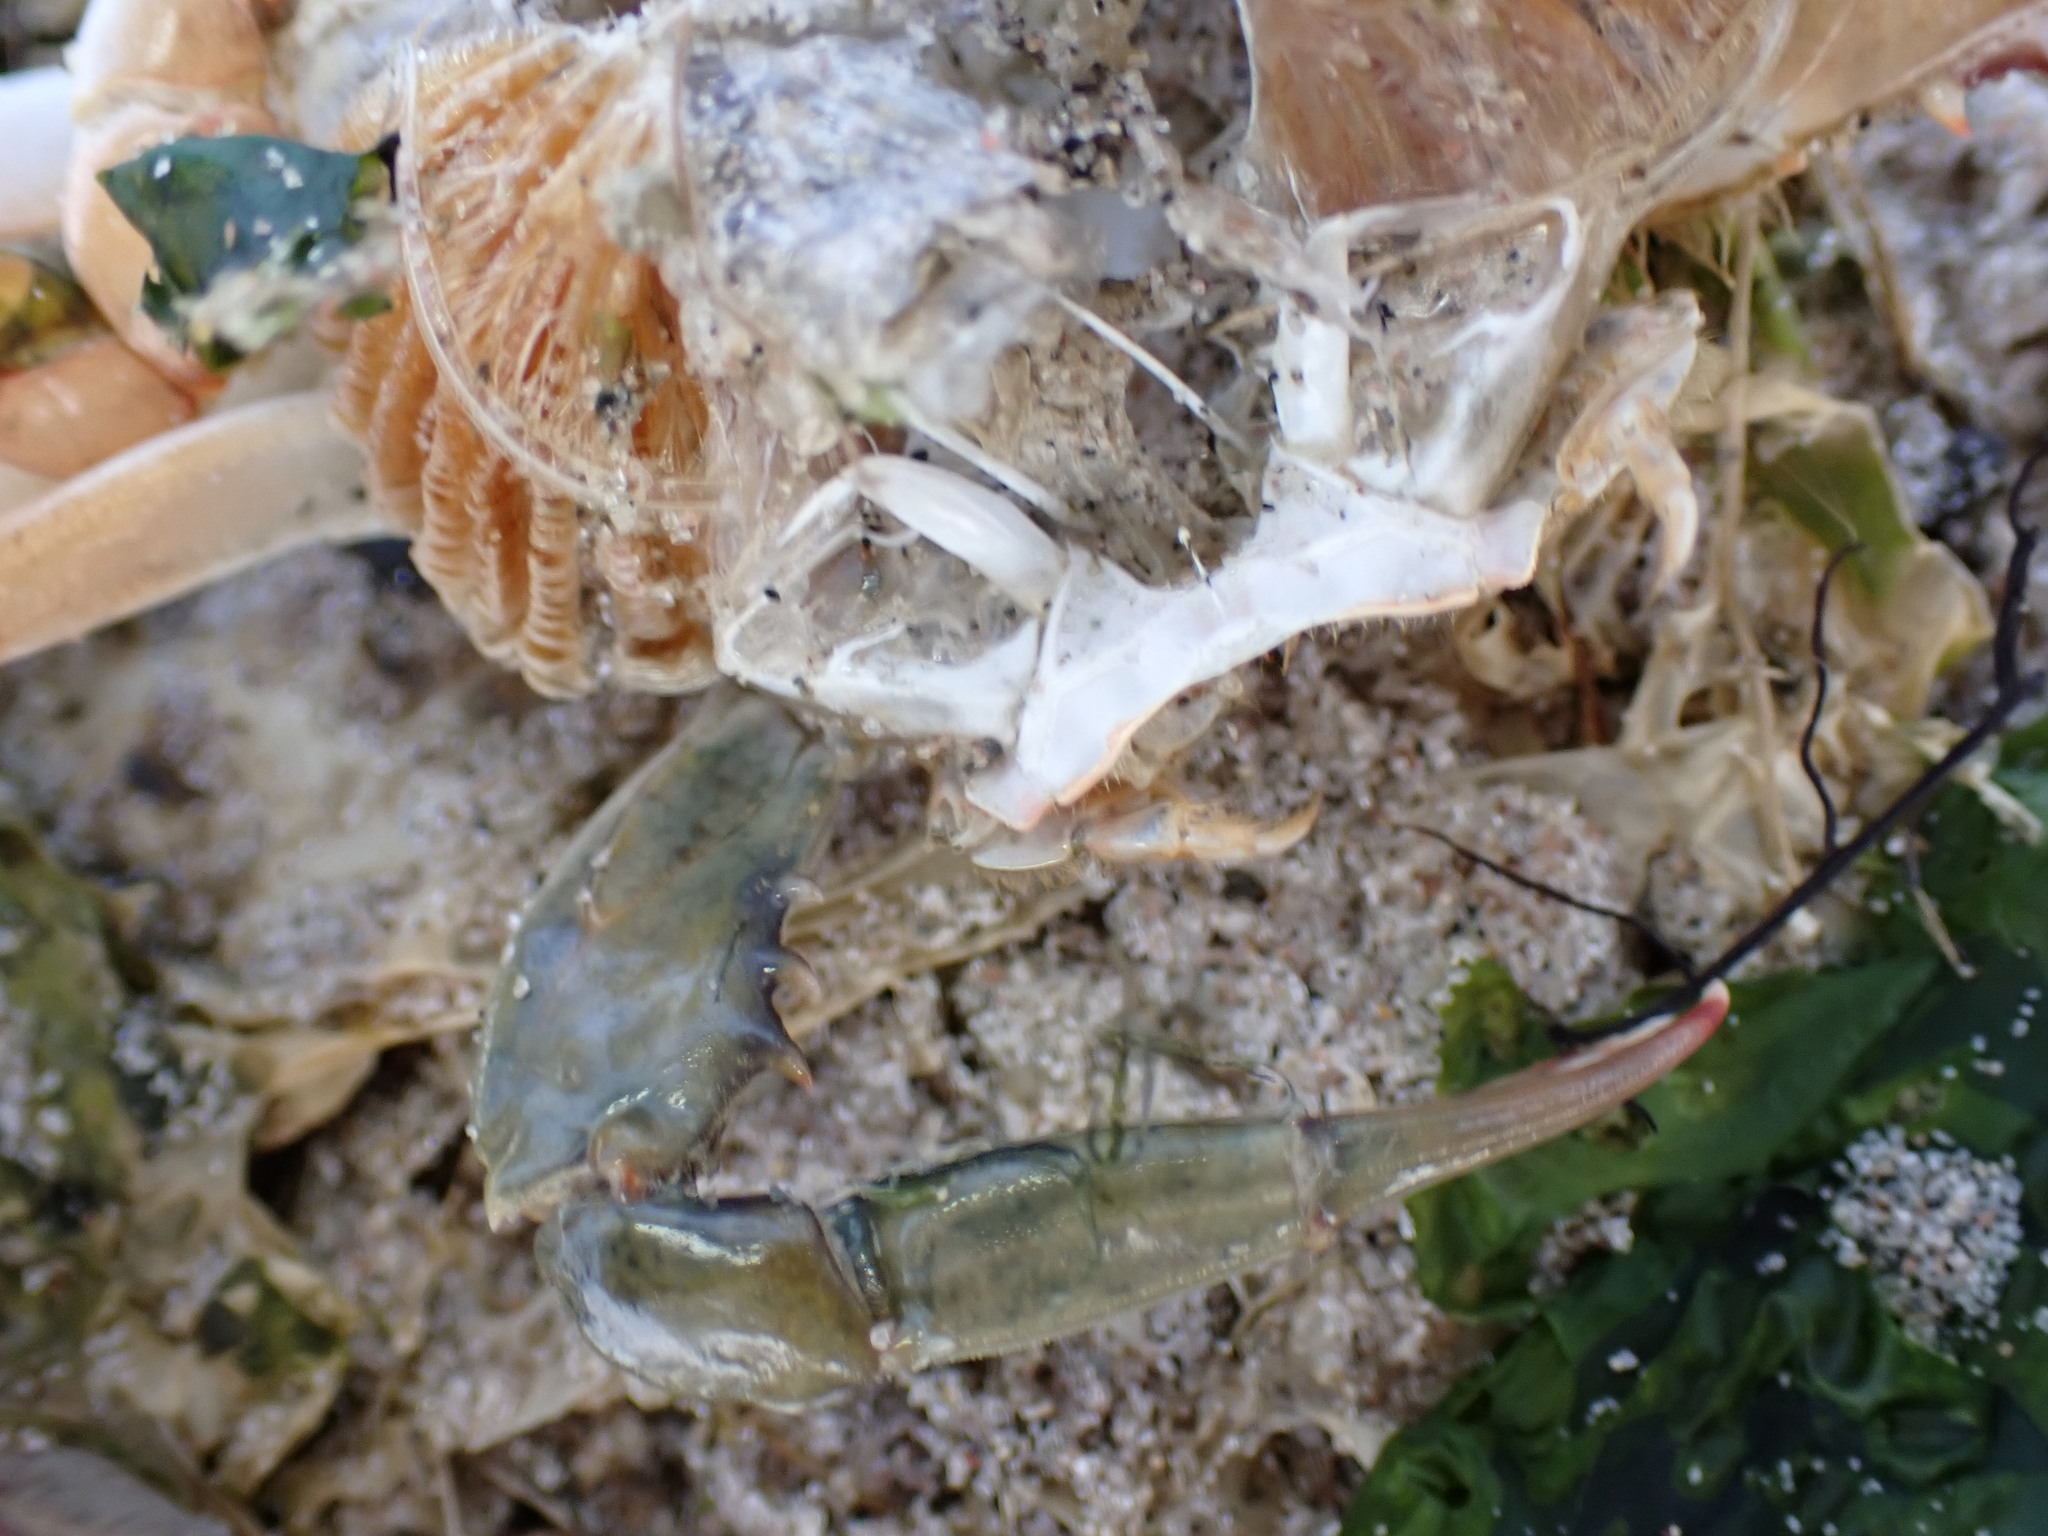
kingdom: Animalia
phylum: Arthropoda
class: Malacostraca
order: Decapoda
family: Portunidae
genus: Callinectes
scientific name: Callinectes sapidus
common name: Blue crab
